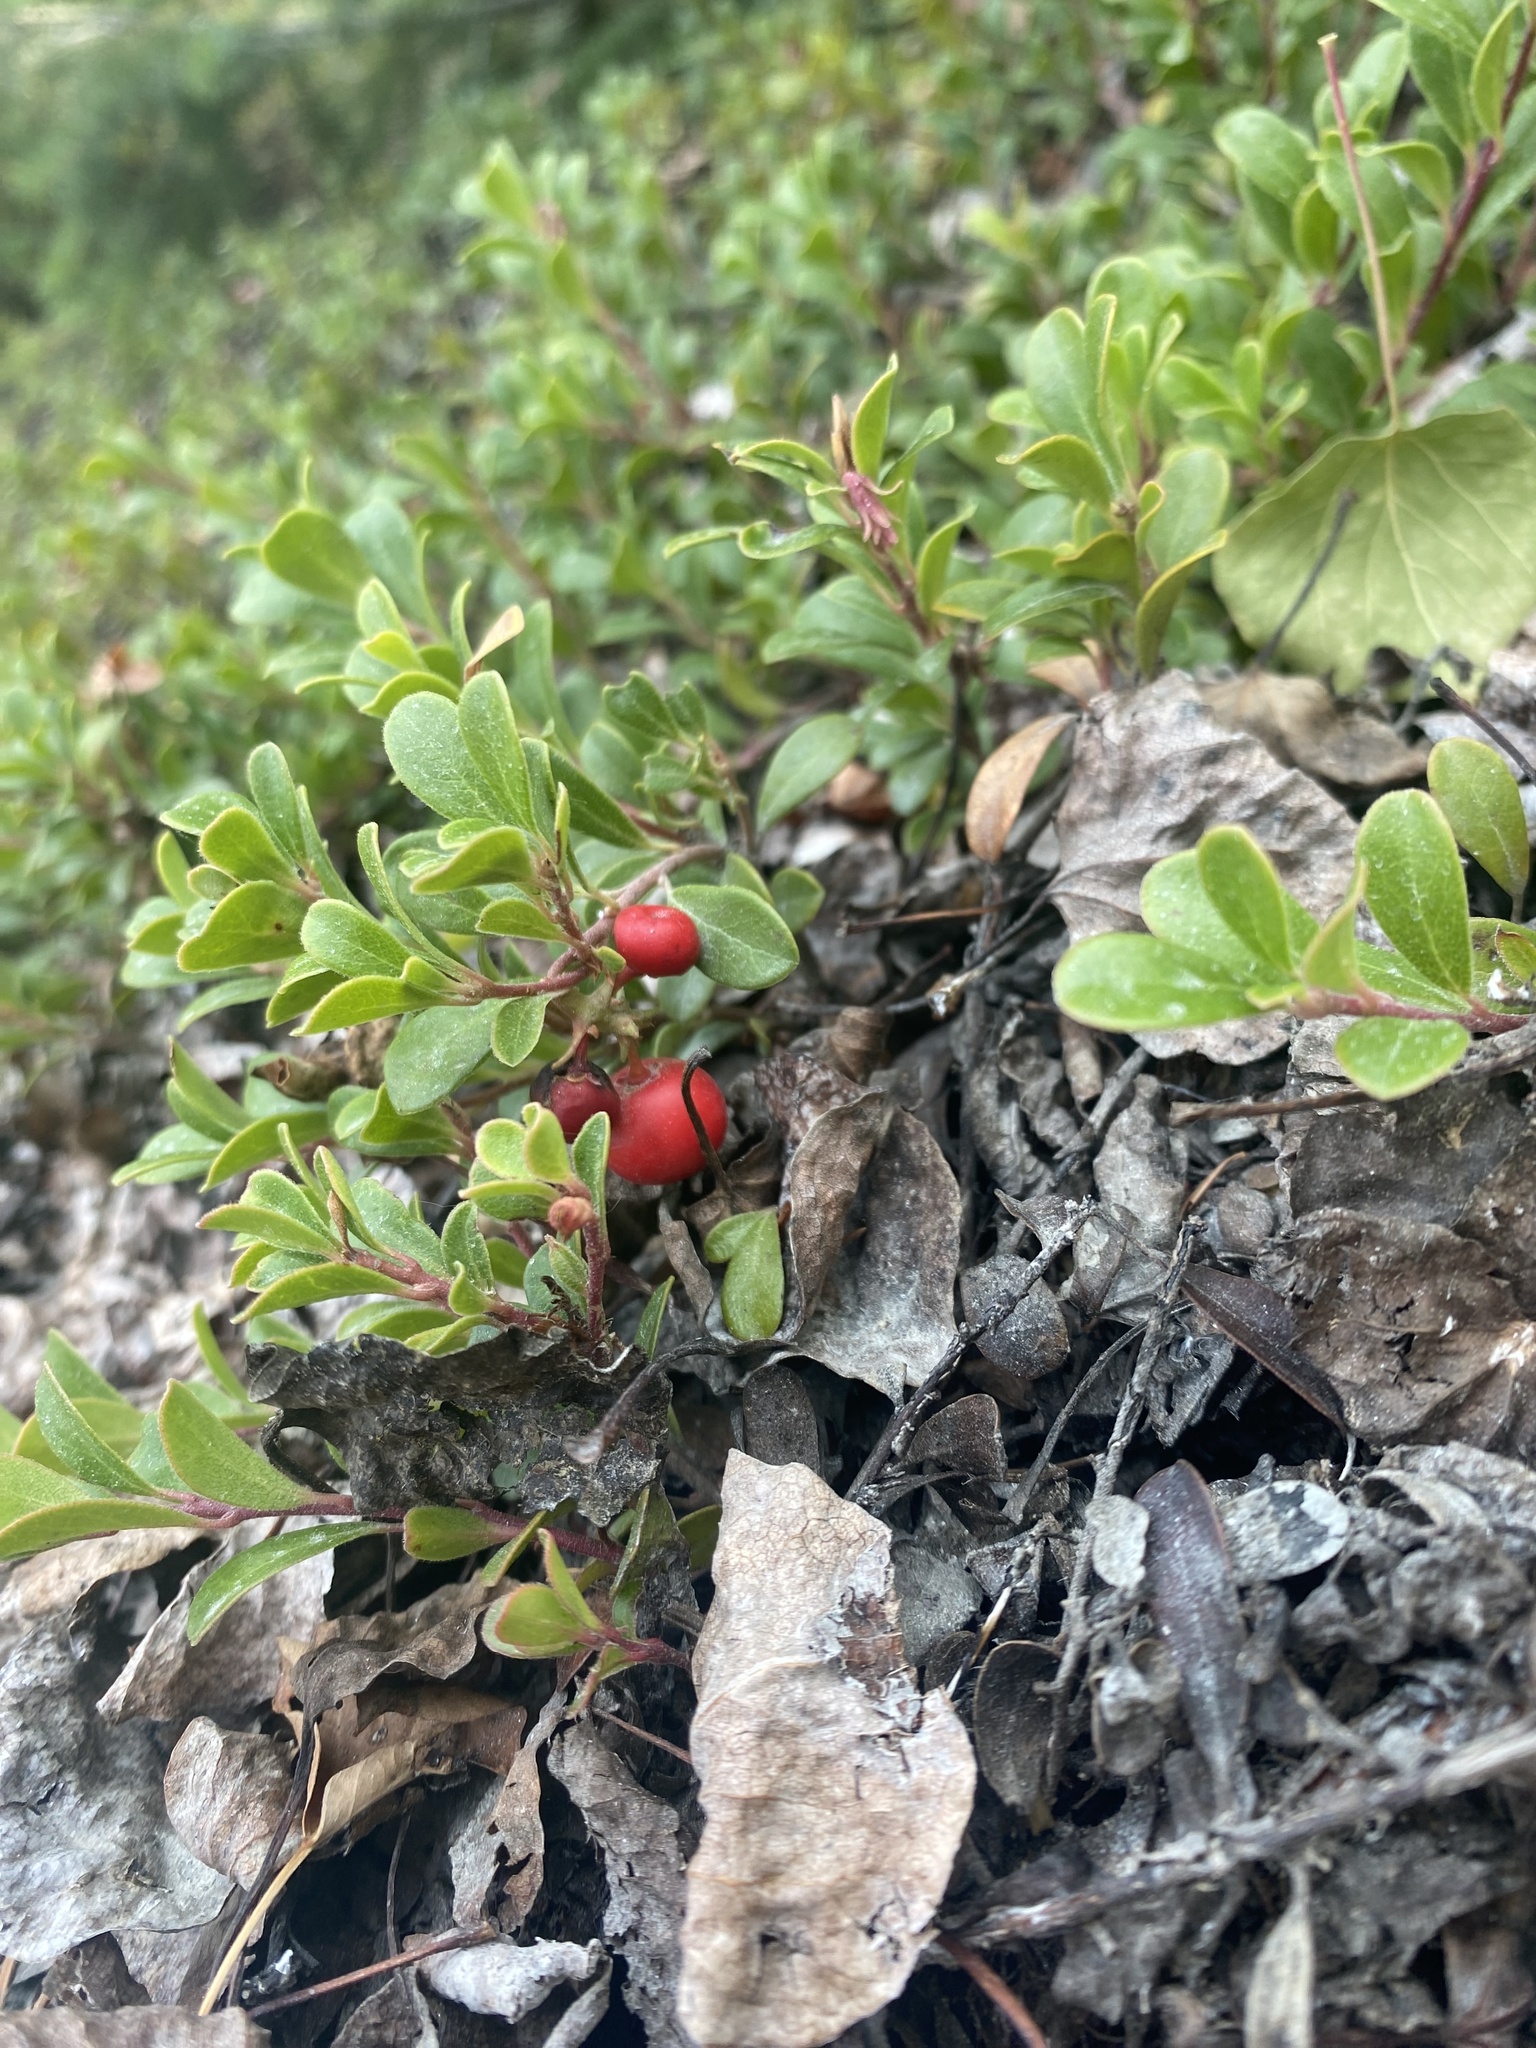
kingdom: Plantae
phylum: Tracheophyta
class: Magnoliopsida
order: Ericales
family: Ericaceae
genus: Arctostaphylos
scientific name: Arctostaphylos uva-ursi
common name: Bearberry
